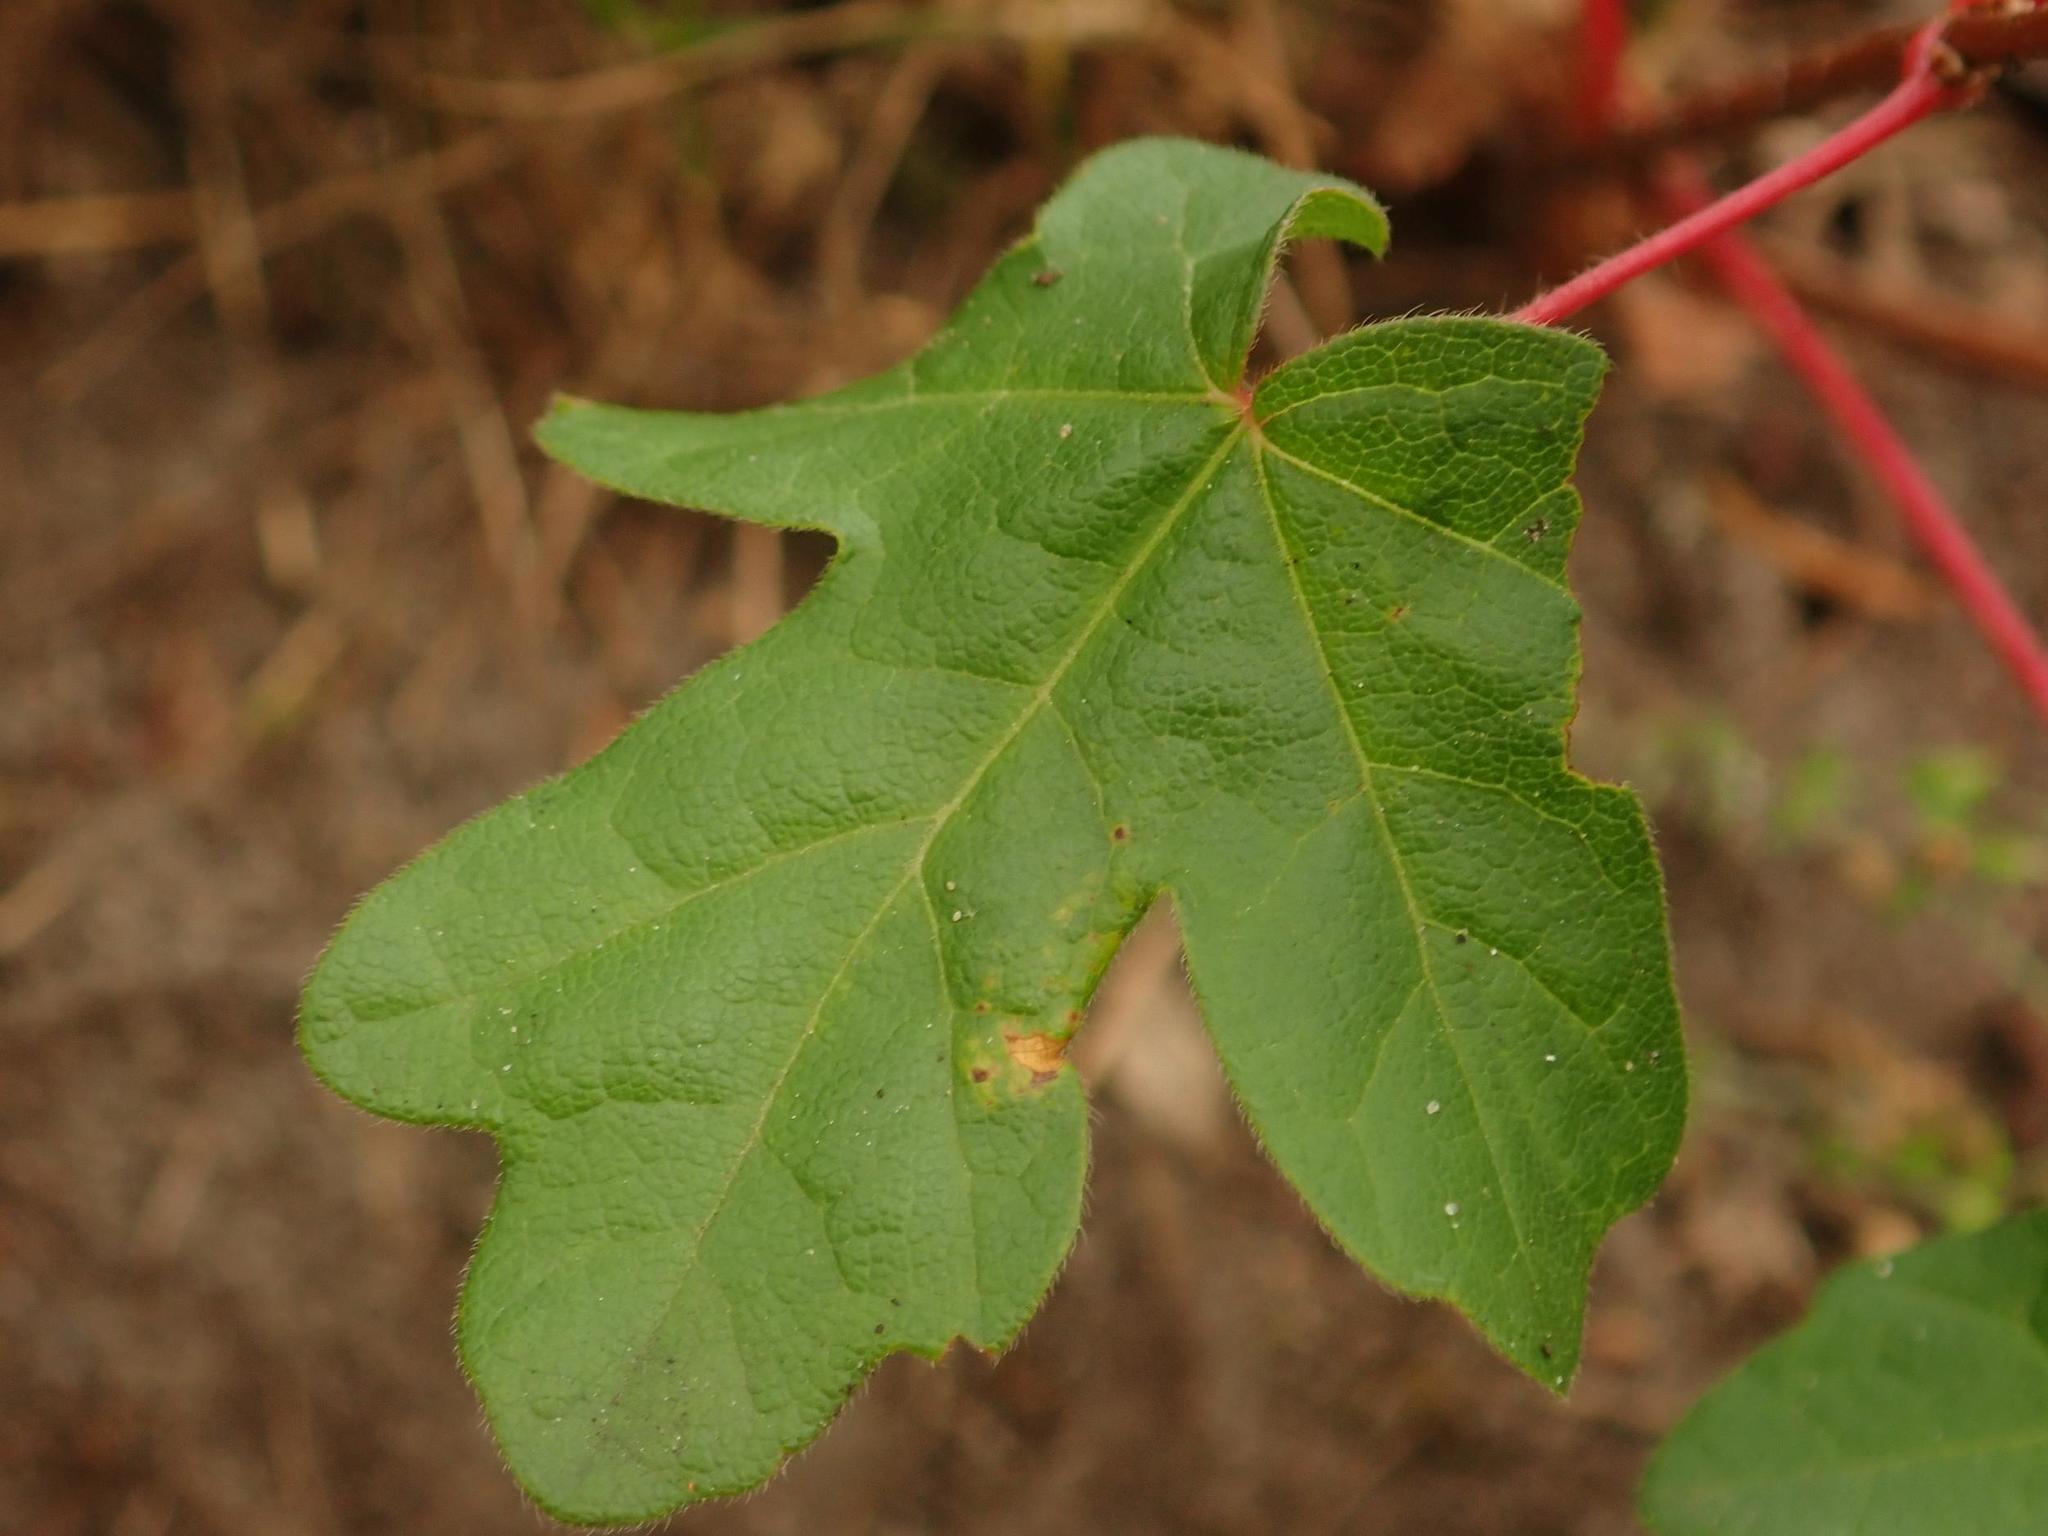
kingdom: Plantae
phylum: Tracheophyta
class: Magnoliopsida
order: Sapindales
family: Sapindaceae
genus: Acer
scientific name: Acer campestre
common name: Field maple
